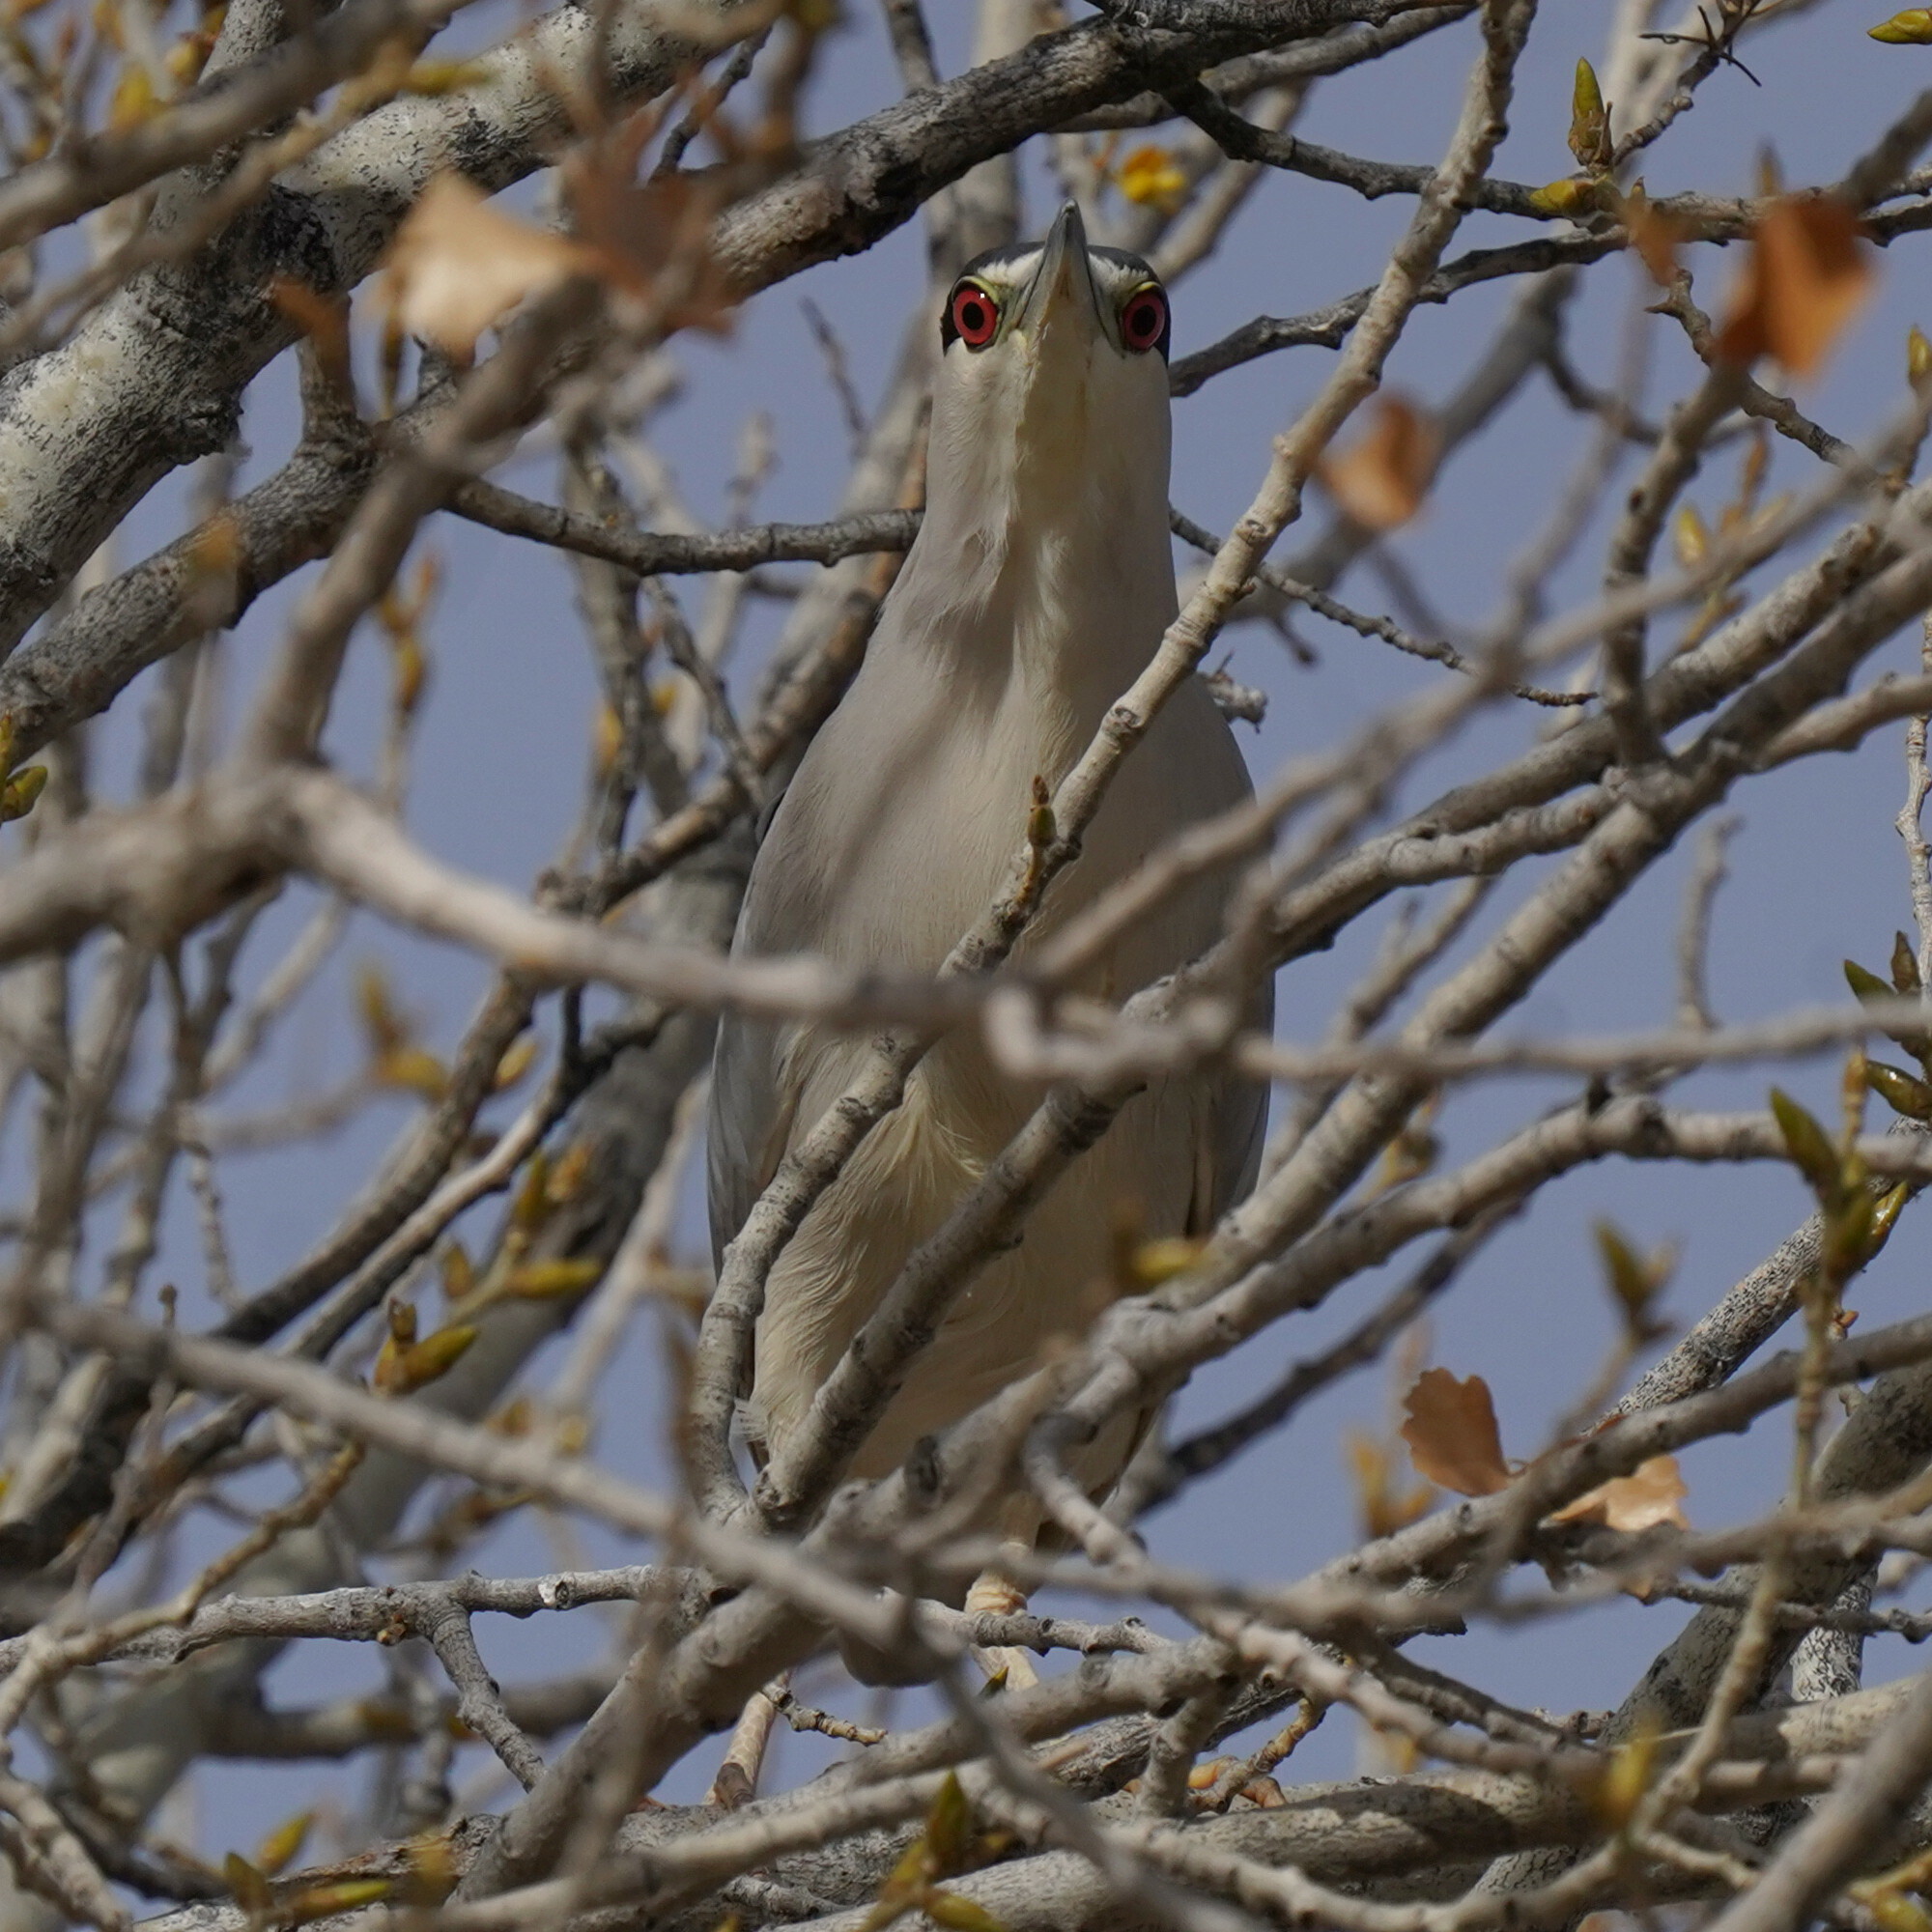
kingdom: Animalia
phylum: Chordata
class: Aves
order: Pelecaniformes
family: Ardeidae
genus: Nycticorax
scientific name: Nycticorax nycticorax
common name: Black-crowned night heron
